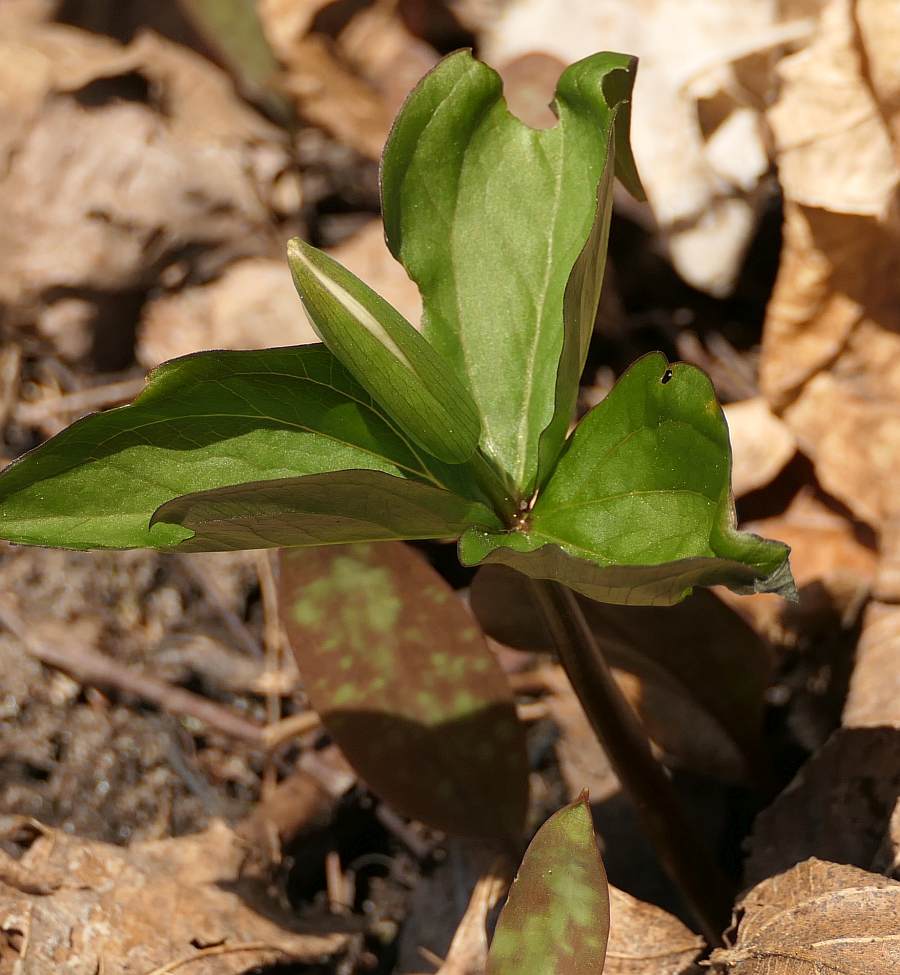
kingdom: Plantae
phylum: Tracheophyta
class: Liliopsida
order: Liliales
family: Melanthiaceae
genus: Trillium
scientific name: Trillium grandiflorum
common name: Great white trillium
